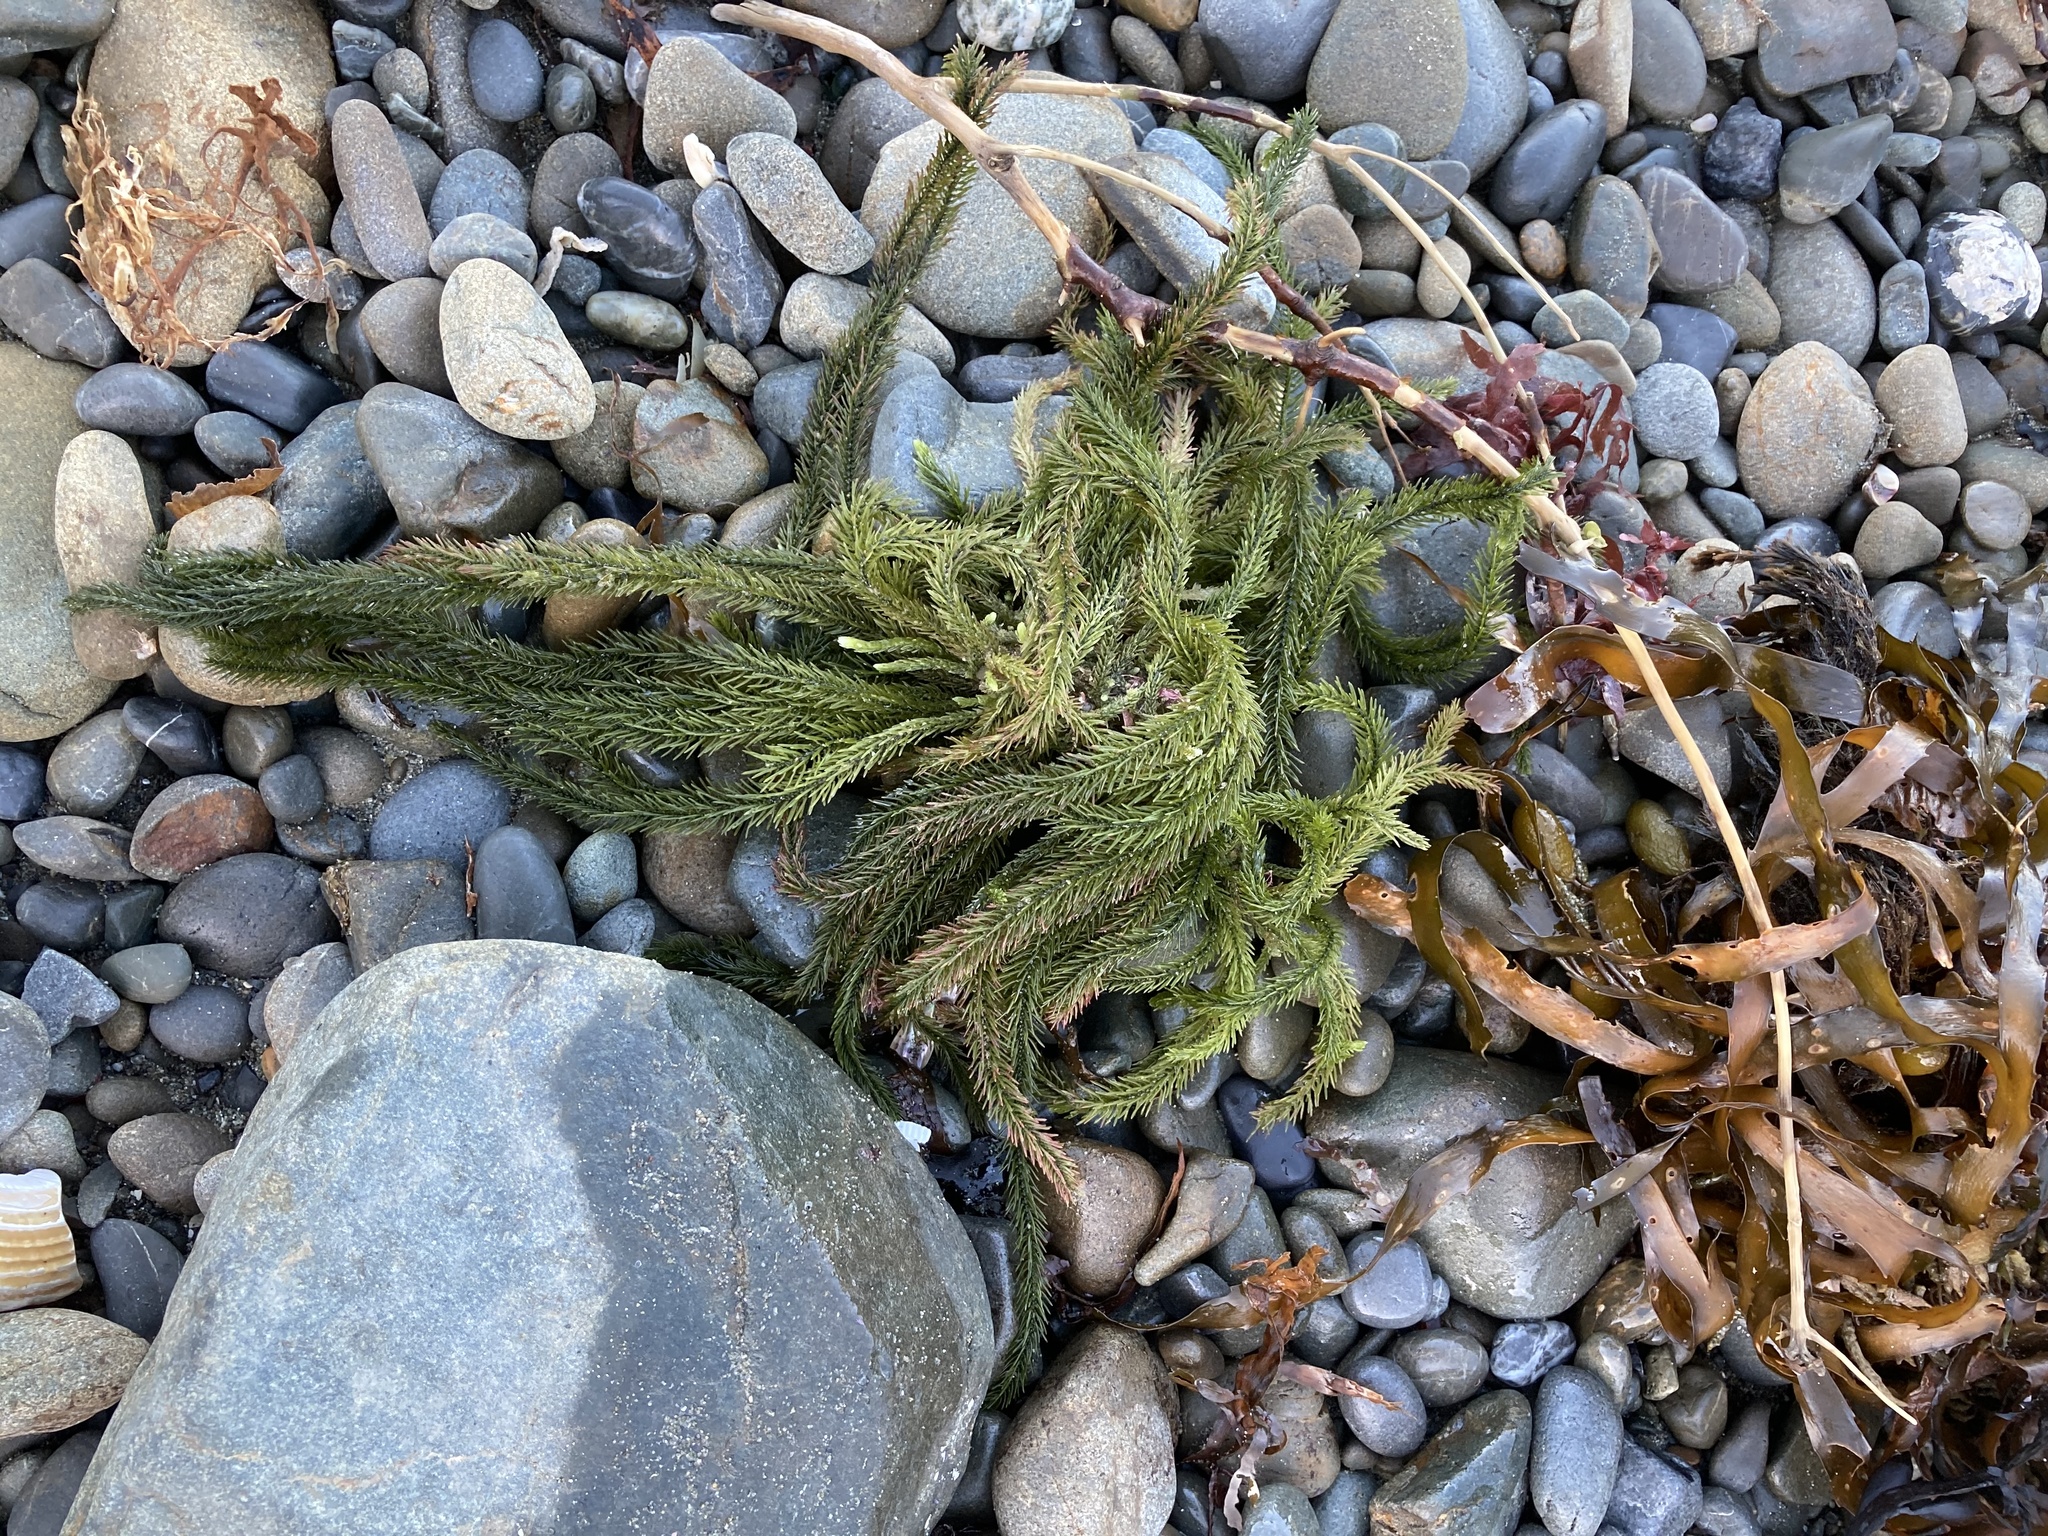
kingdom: Plantae
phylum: Chlorophyta
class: Ulvophyceae
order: Bryopsidales
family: Caulerpaceae
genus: Caulerpa
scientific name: Caulerpa brownii
